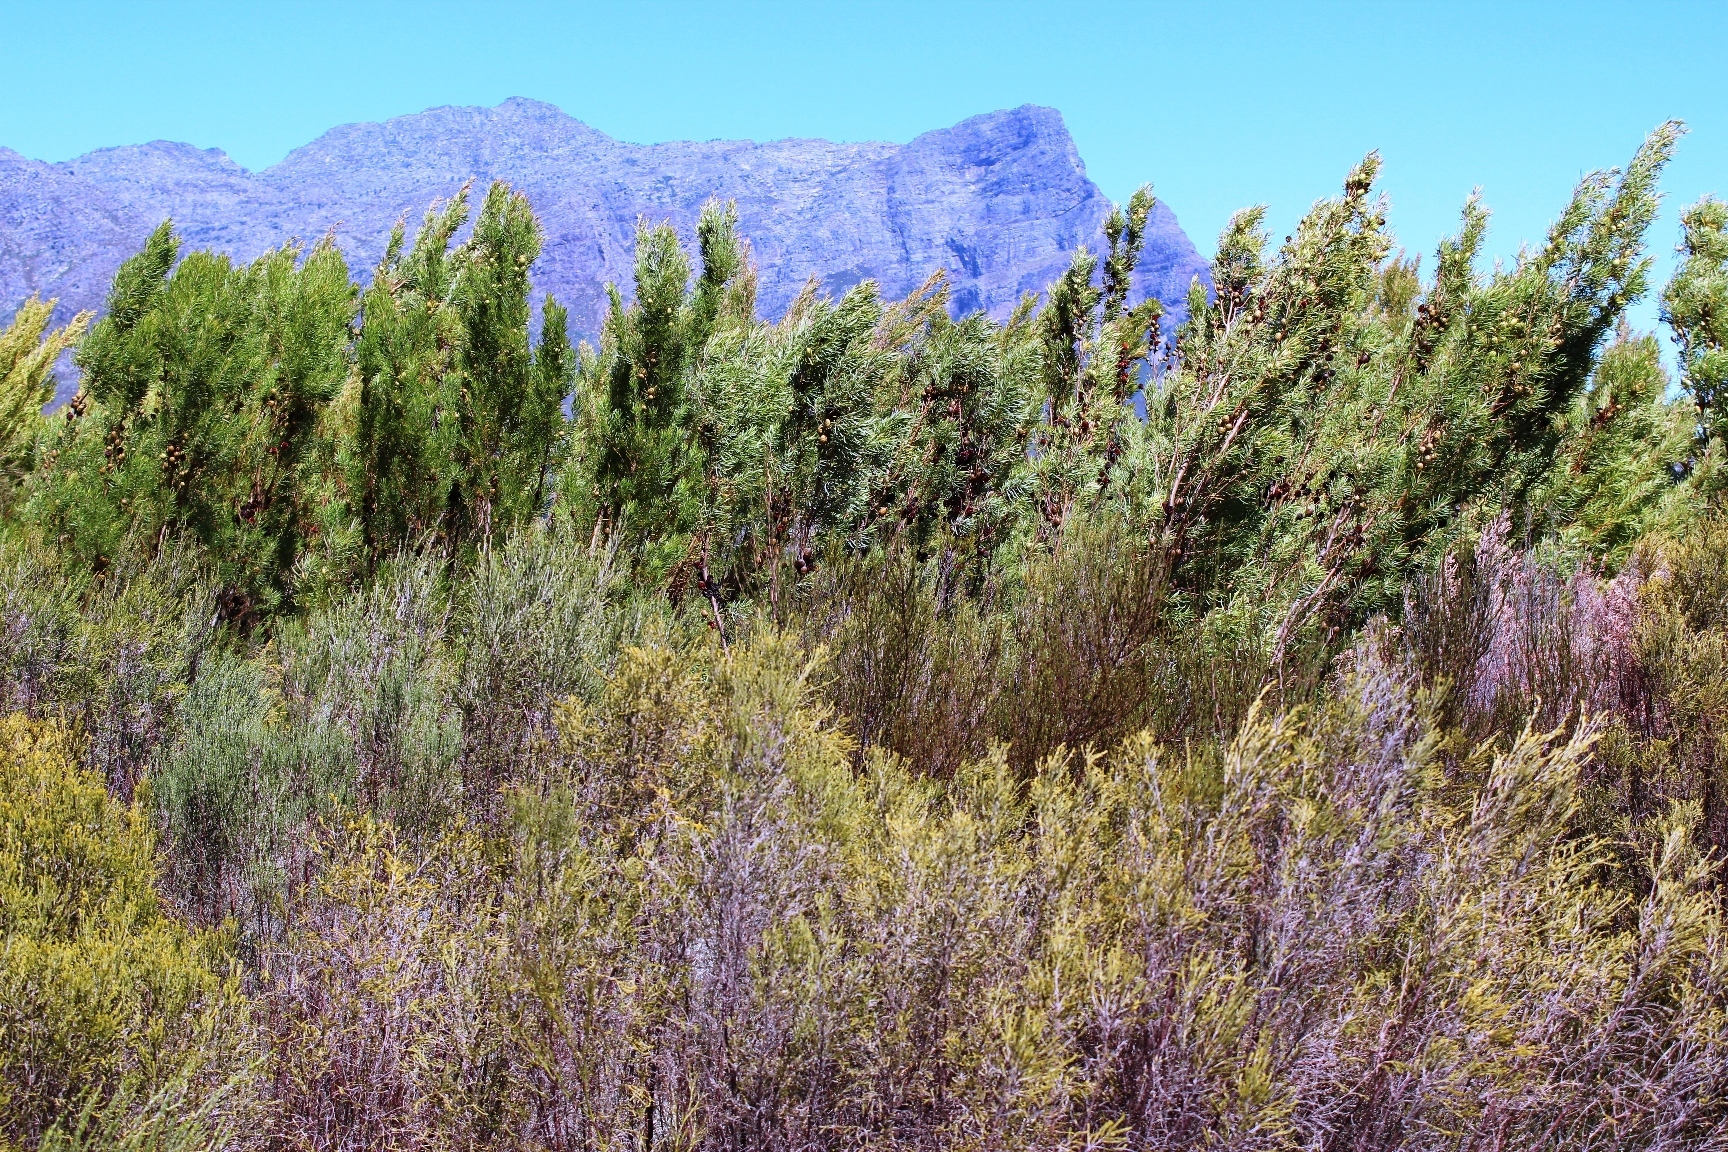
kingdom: Plantae
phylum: Tracheophyta
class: Magnoliopsida
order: Proteales
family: Proteaceae
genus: Leucadendron
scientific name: Leucadendron salicifolium
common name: Common stream conebush
